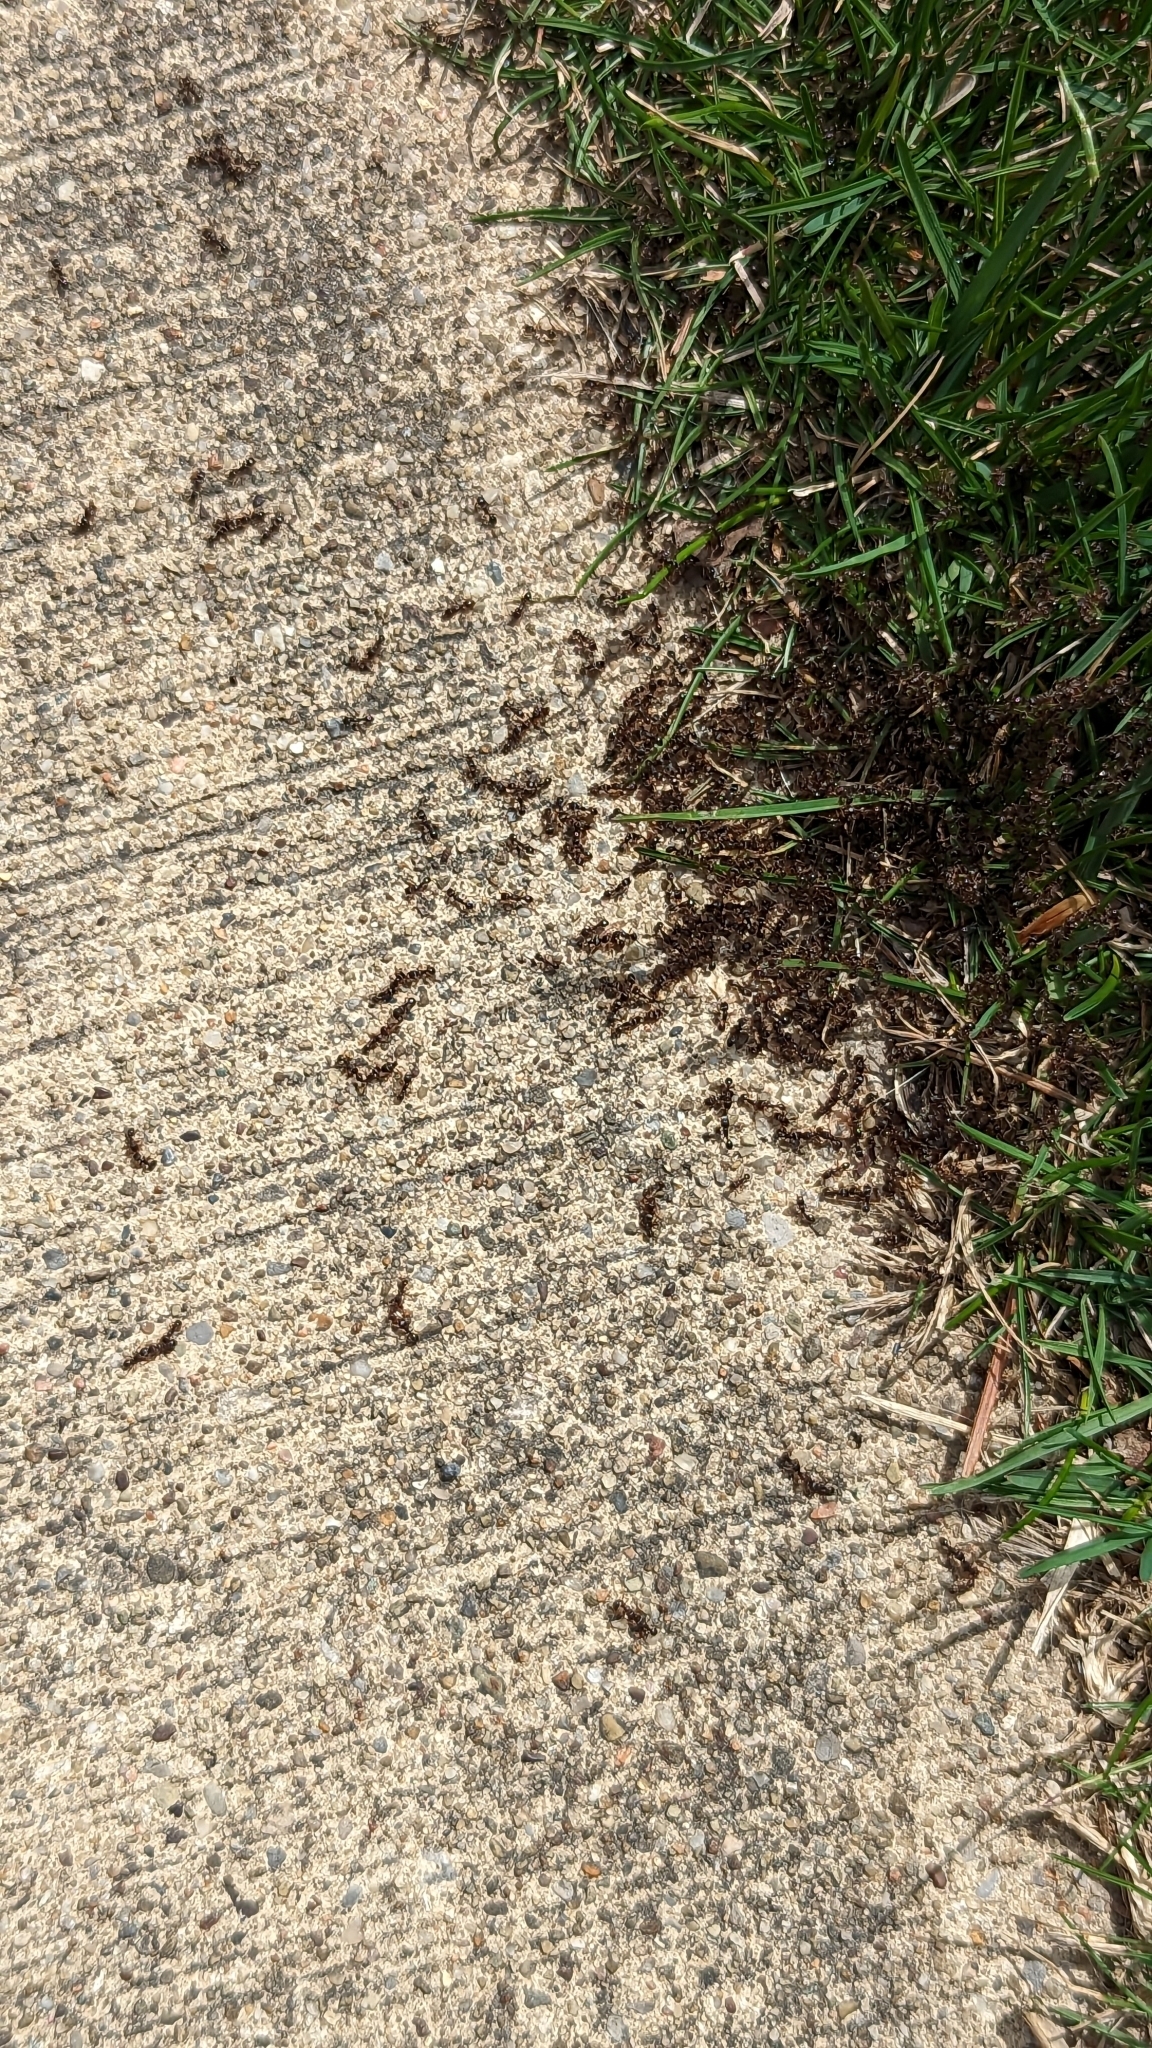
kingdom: Animalia
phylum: Arthropoda
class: Insecta
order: Hymenoptera
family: Formicidae
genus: Tetramorium
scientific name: Tetramorium immigrans
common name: Pavement ant
